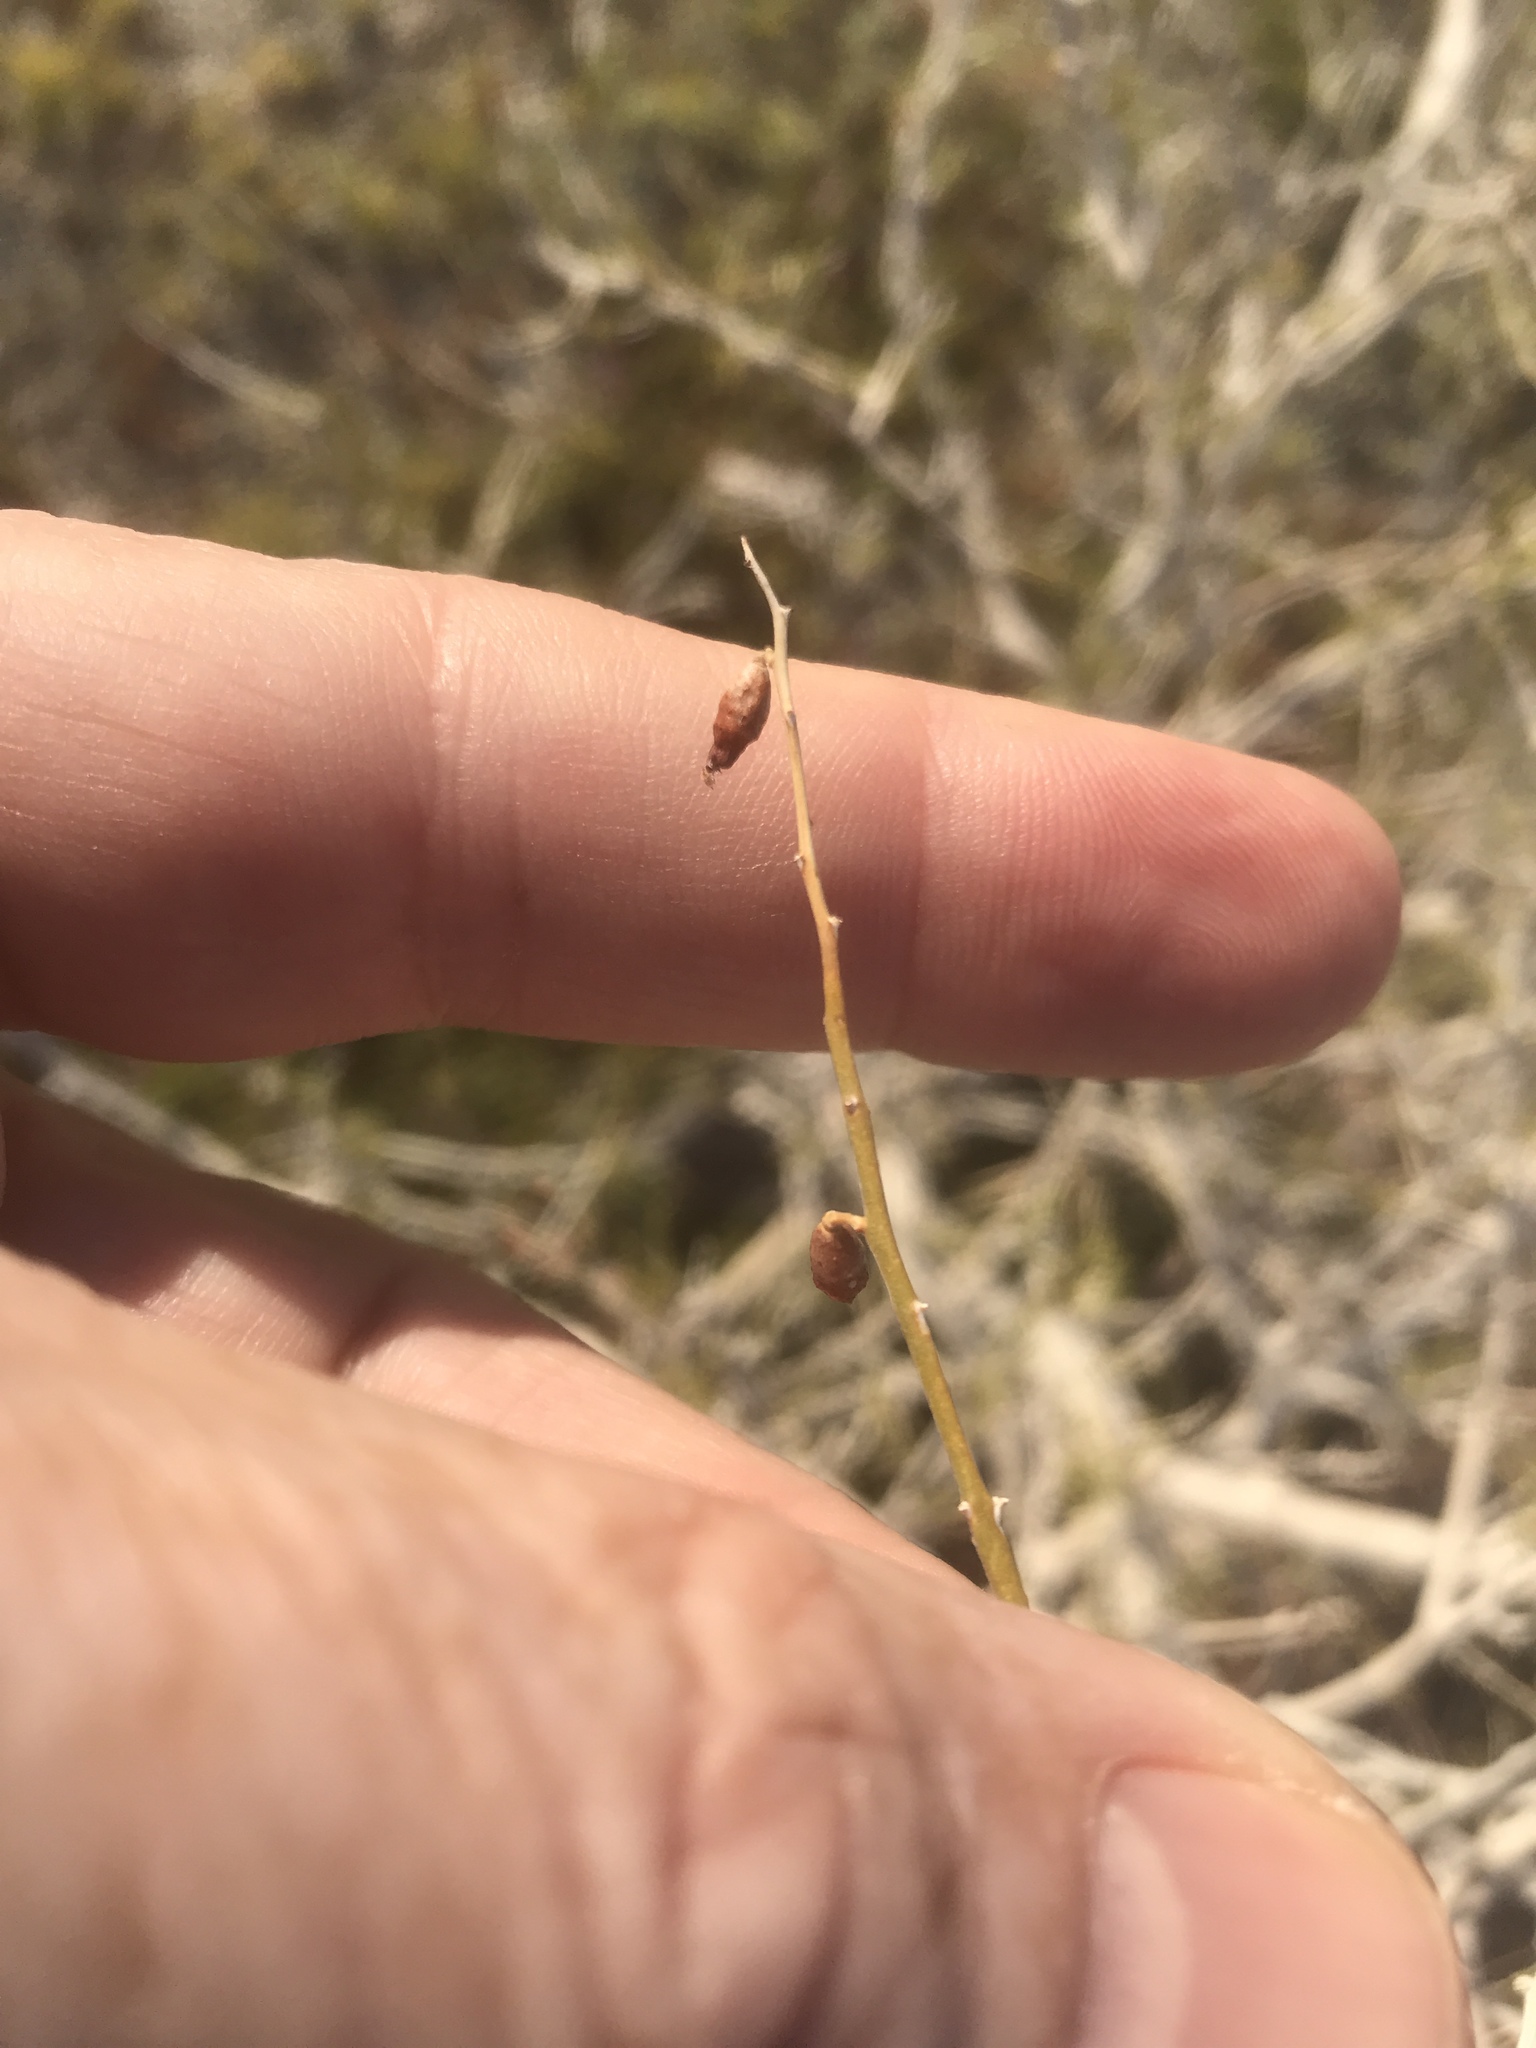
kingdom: Plantae
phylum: Tracheophyta
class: Magnoliopsida
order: Fabales
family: Fabaceae
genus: Psorothamnus
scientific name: Psorothamnus schottii
